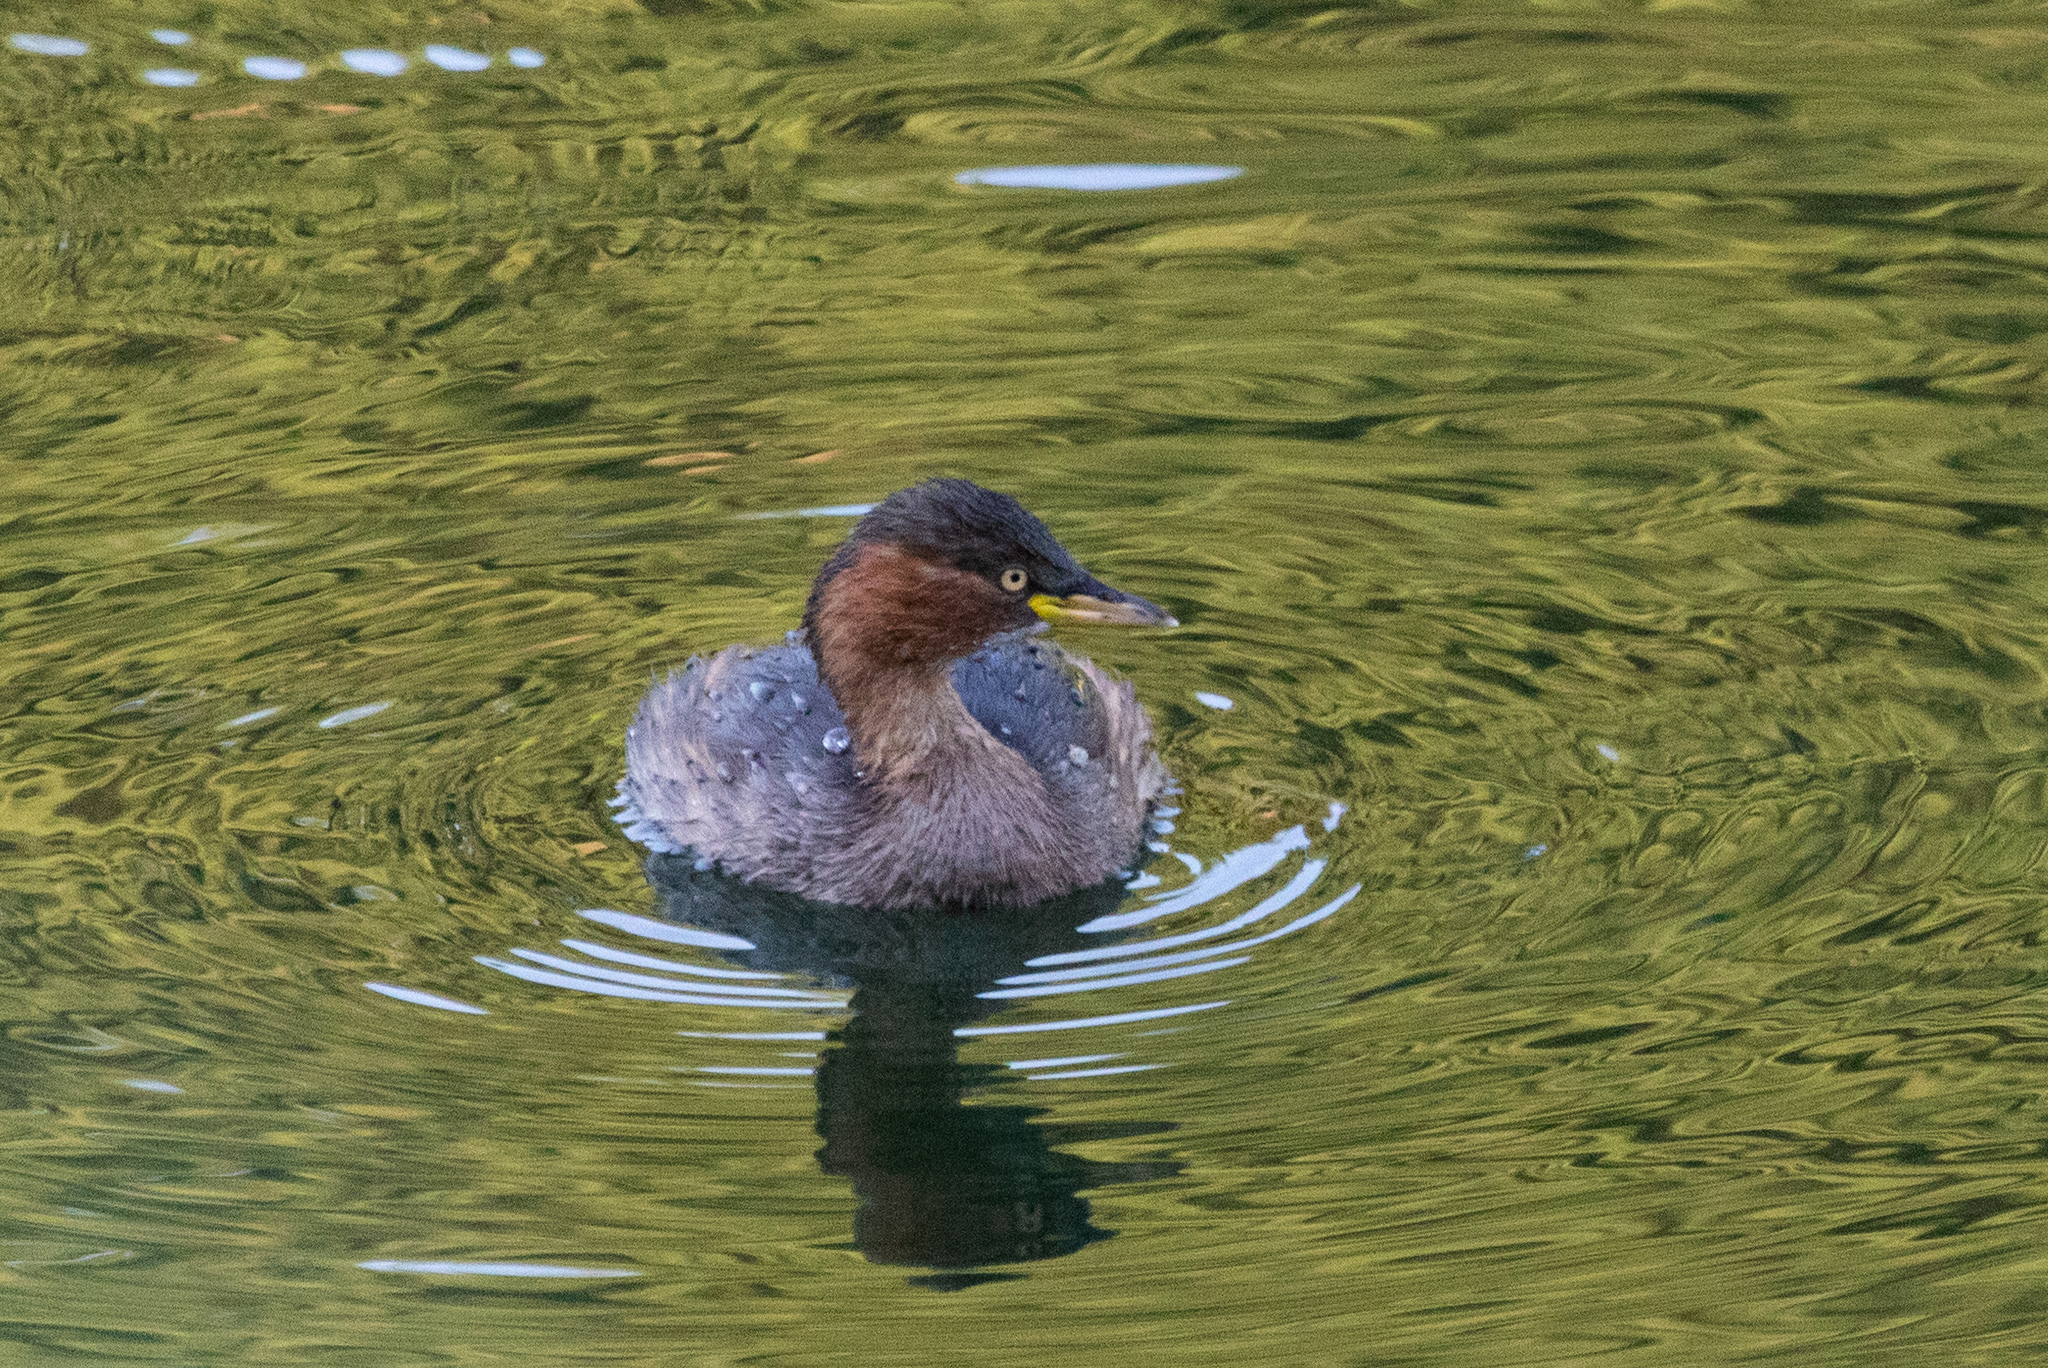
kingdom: Animalia
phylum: Chordata
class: Aves
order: Podicipediformes
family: Podicipedidae
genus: Tachybaptus
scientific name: Tachybaptus ruficollis
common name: Little grebe
